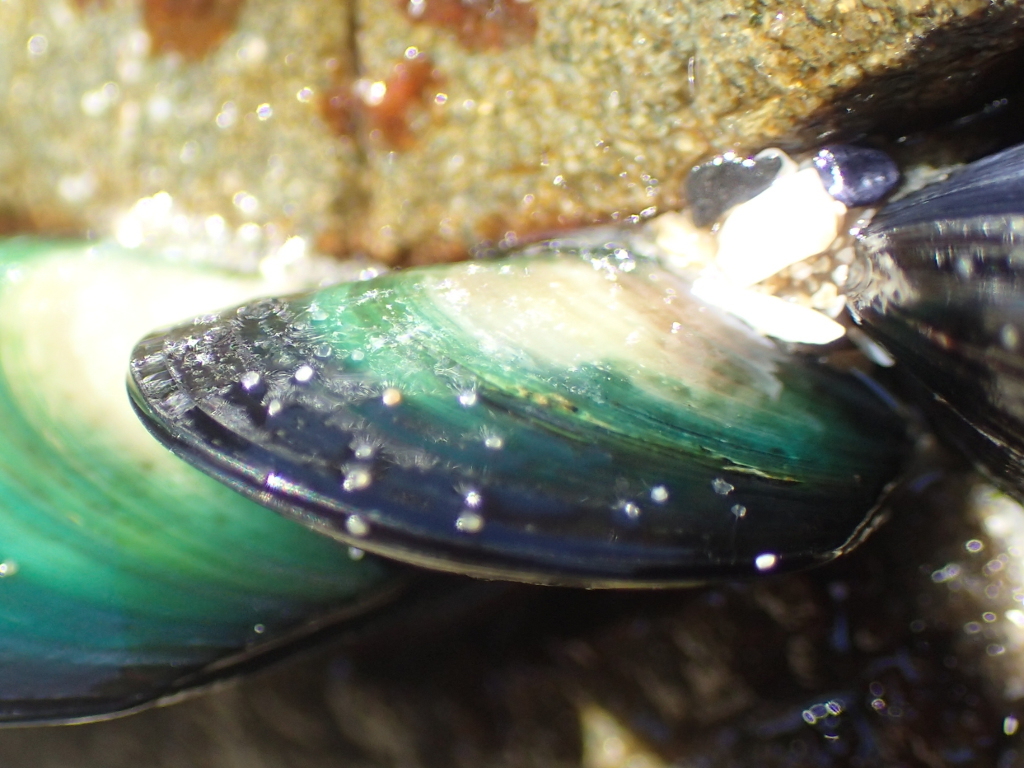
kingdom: Animalia
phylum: Mollusca
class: Bivalvia
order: Mytilida
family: Mytilidae
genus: Perna
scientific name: Perna canaliculus
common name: New zealand greenshelltm
